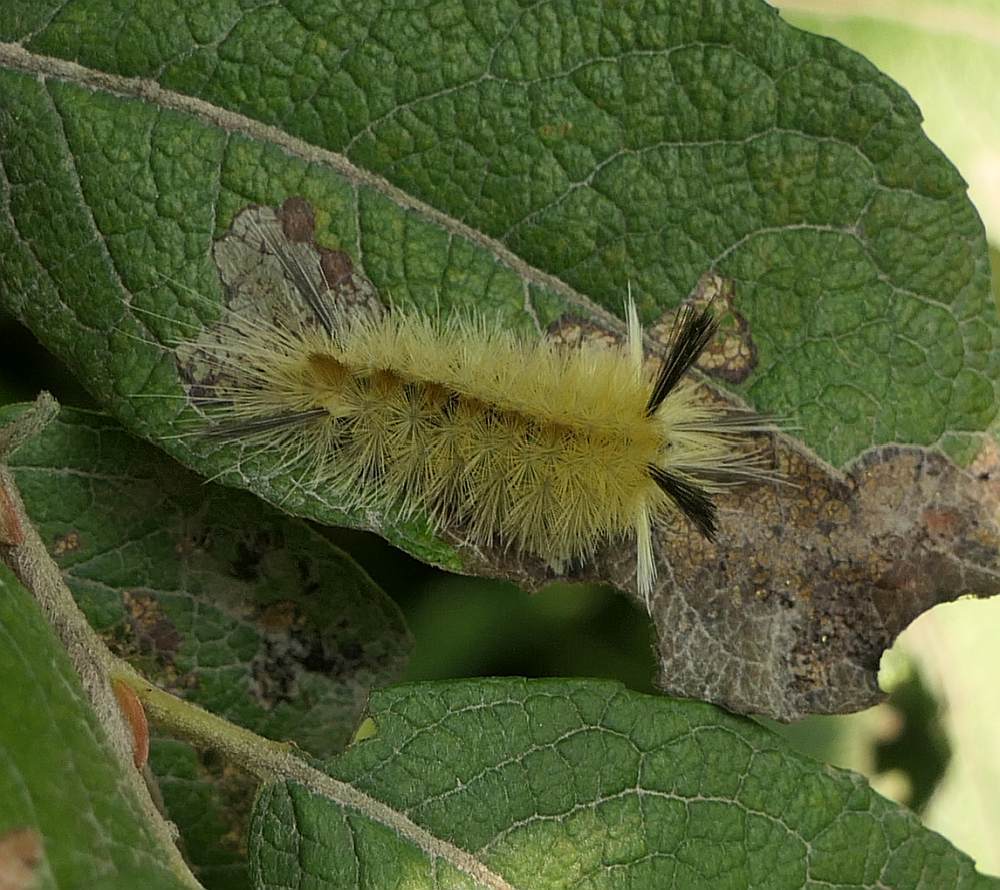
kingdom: Animalia
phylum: Arthropoda
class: Insecta
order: Lepidoptera
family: Erebidae
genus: Halysidota
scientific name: Halysidota tessellaris
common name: Banded tussock moth
